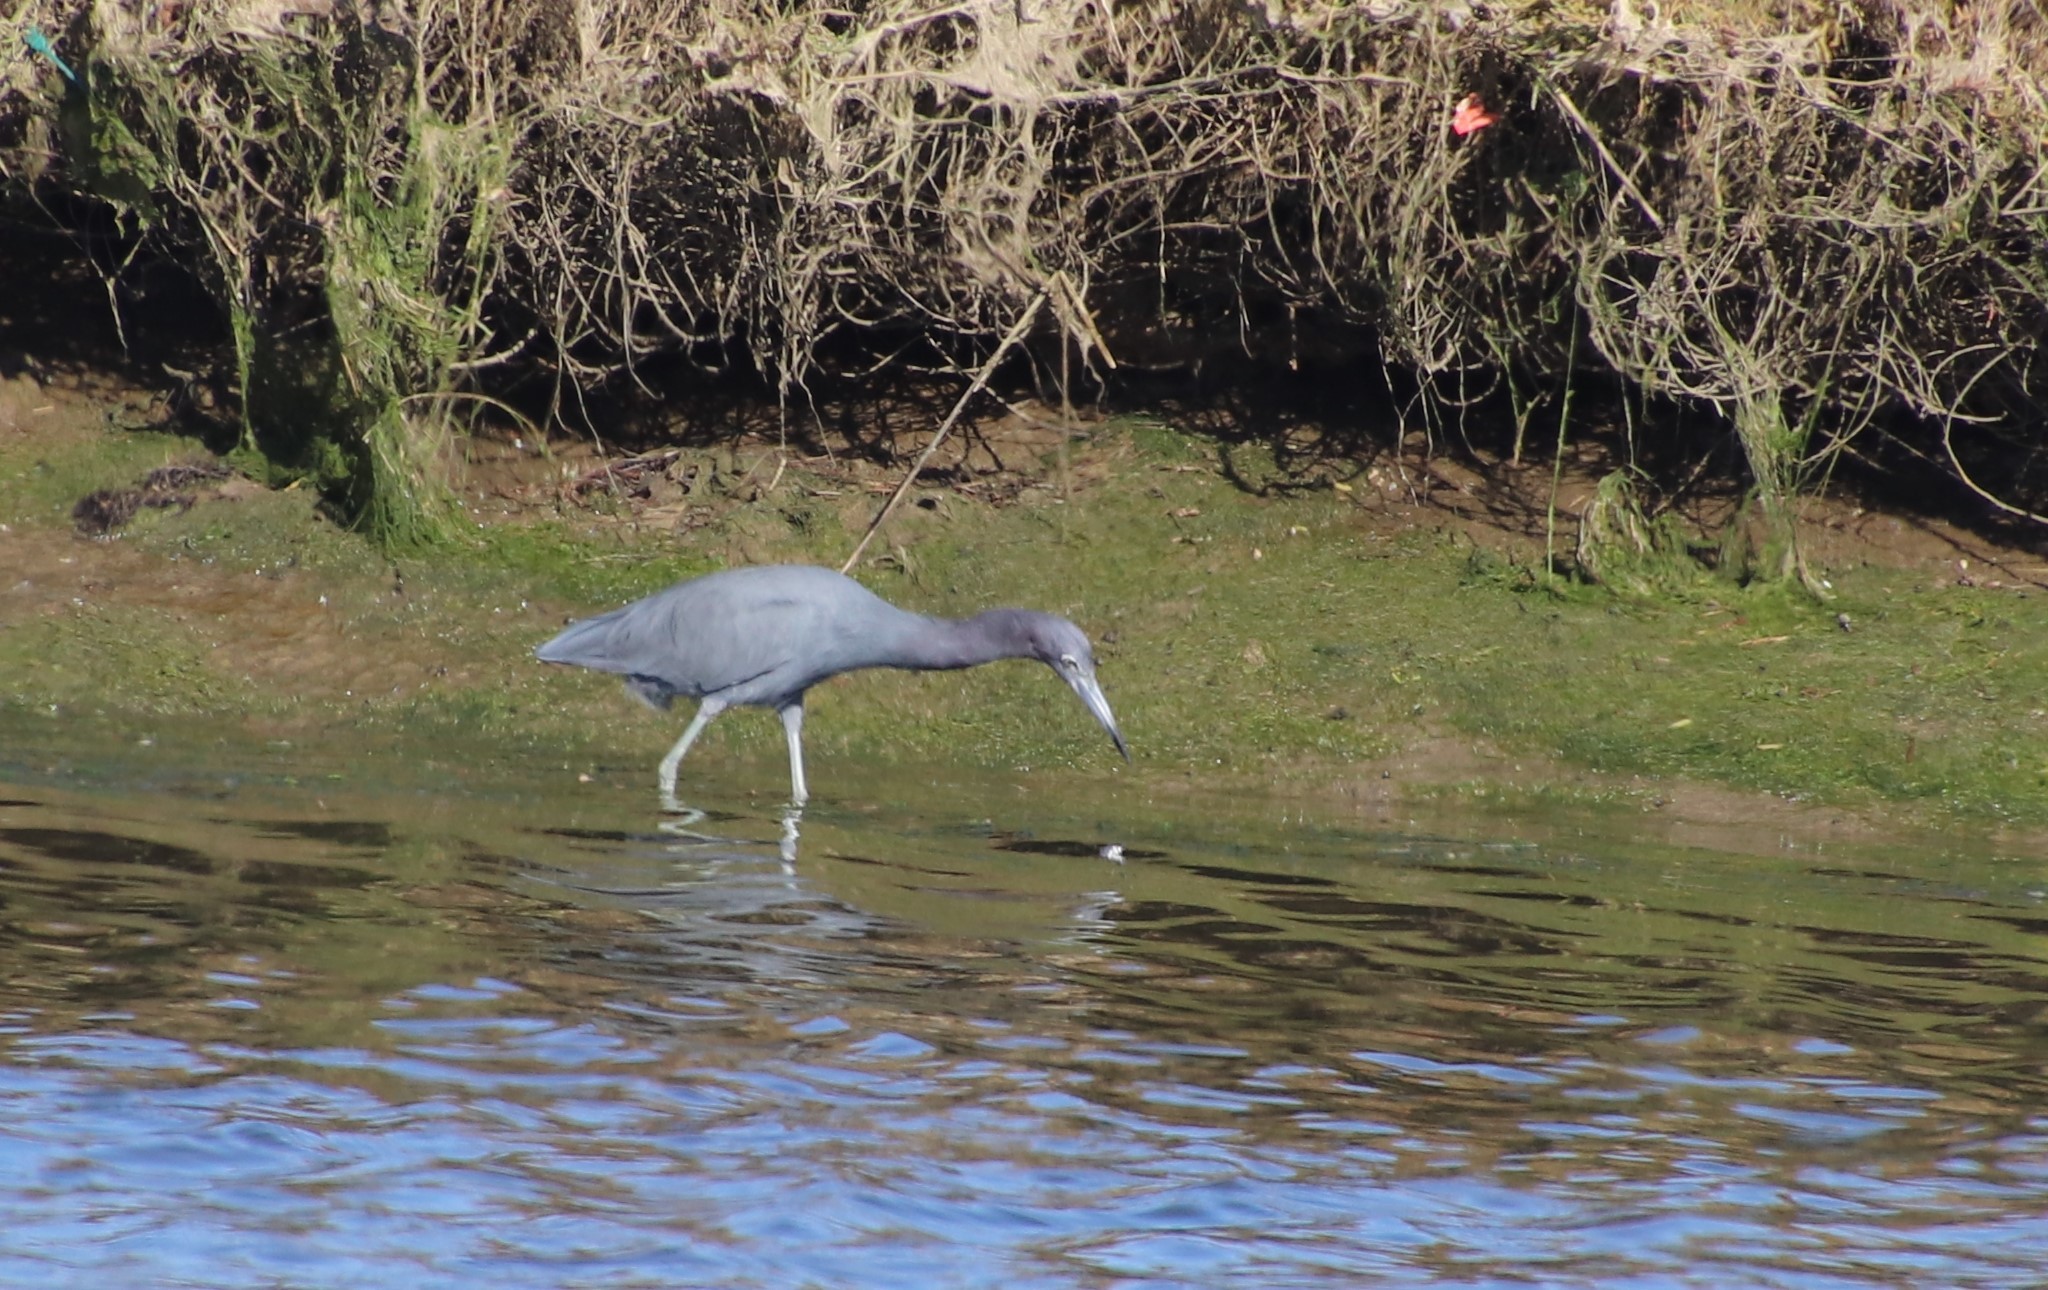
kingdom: Animalia
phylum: Chordata
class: Aves
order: Pelecaniformes
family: Ardeidae
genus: Egretta
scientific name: Egretta caerulea
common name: Little blue heron
